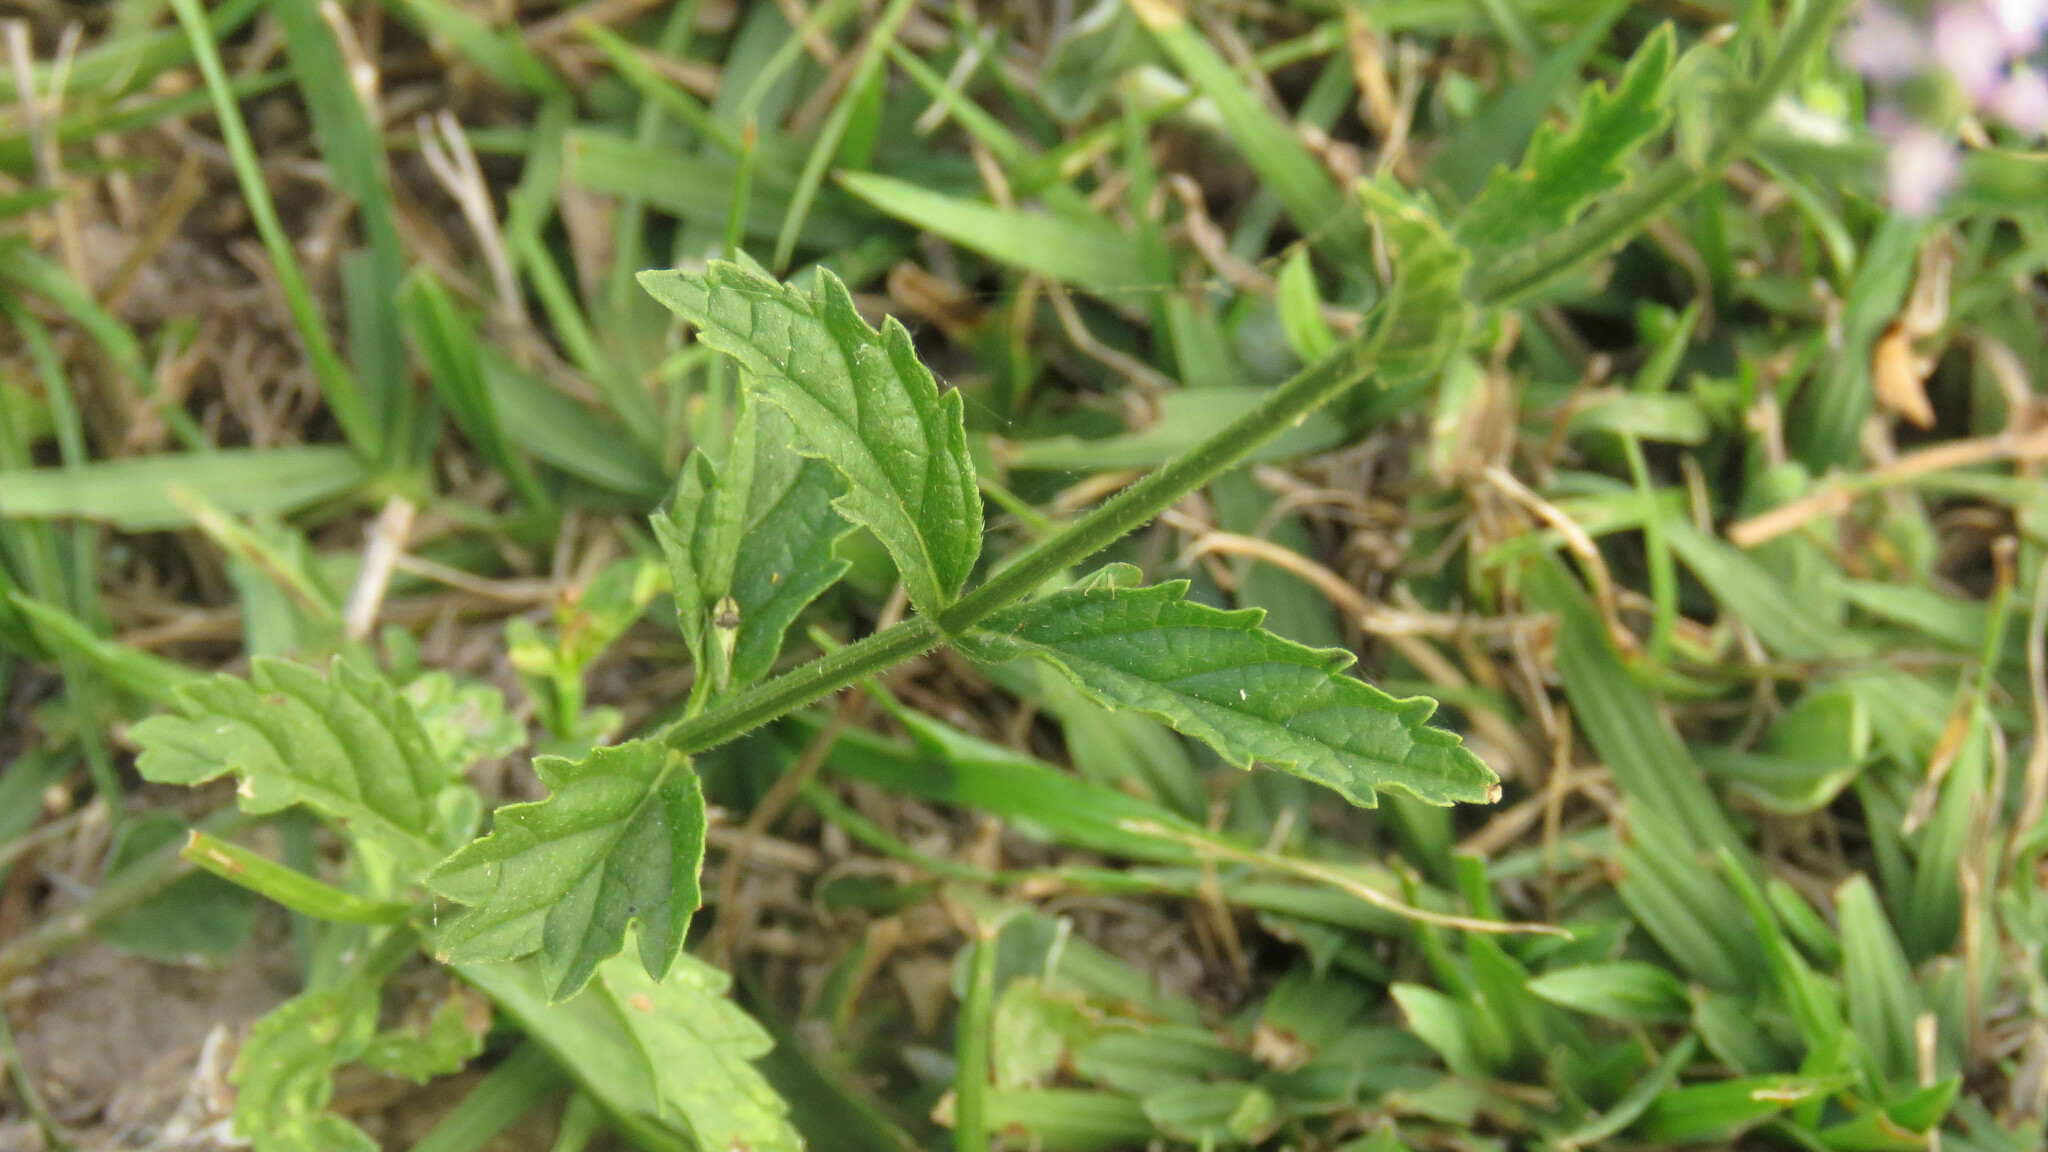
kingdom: Plantae
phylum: Tracheophyta
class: Magnoliopsida
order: Lamiales
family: Verbenaceae
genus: Verbena
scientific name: Verbena litoralis
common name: Seashore vervain
